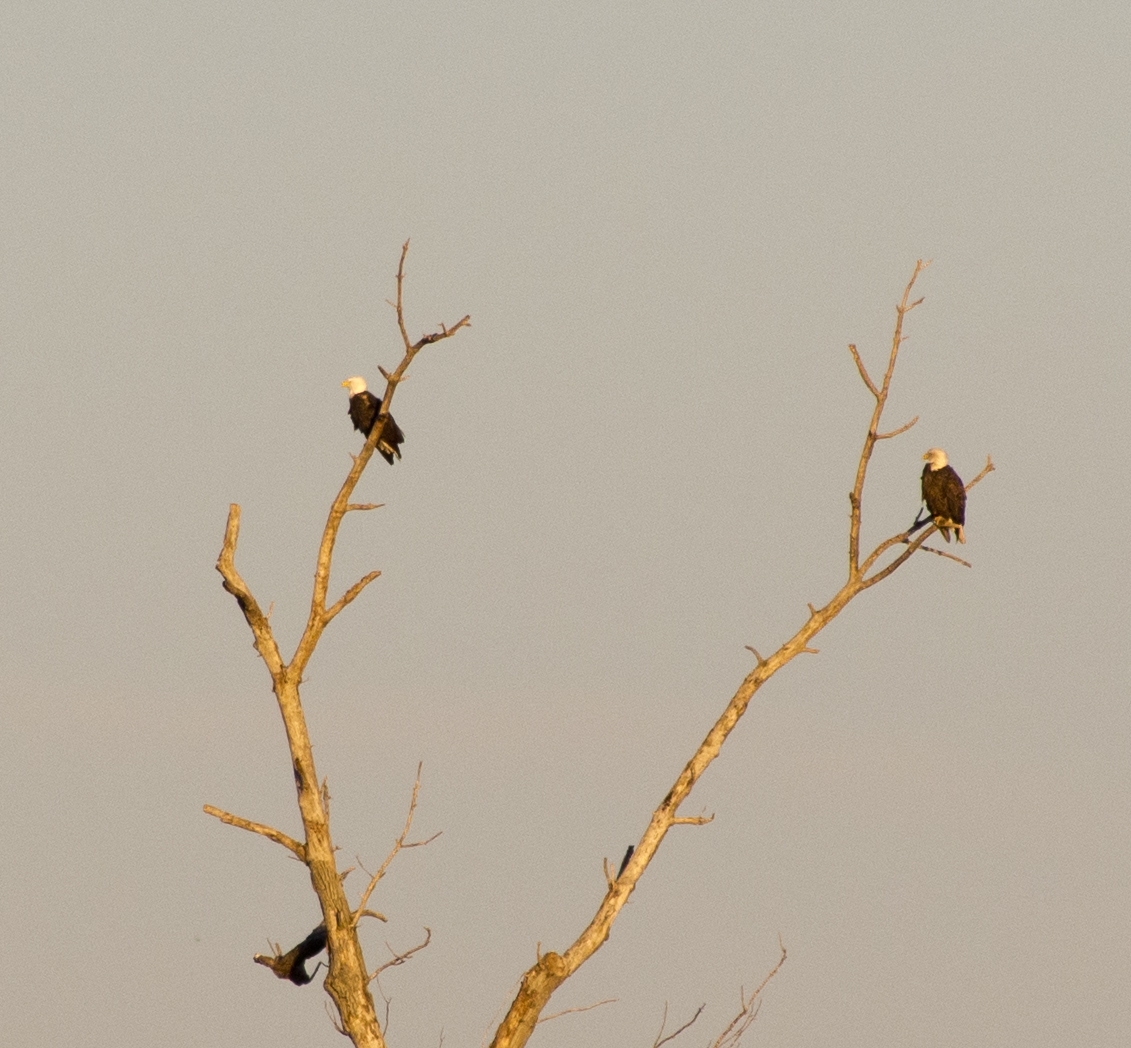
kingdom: Animalia
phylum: Chordata
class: Aves
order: Accipitriformes
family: Accipitridae
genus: Haliaeetus
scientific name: Haliaeetus leucocephalus
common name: Bald eagle
